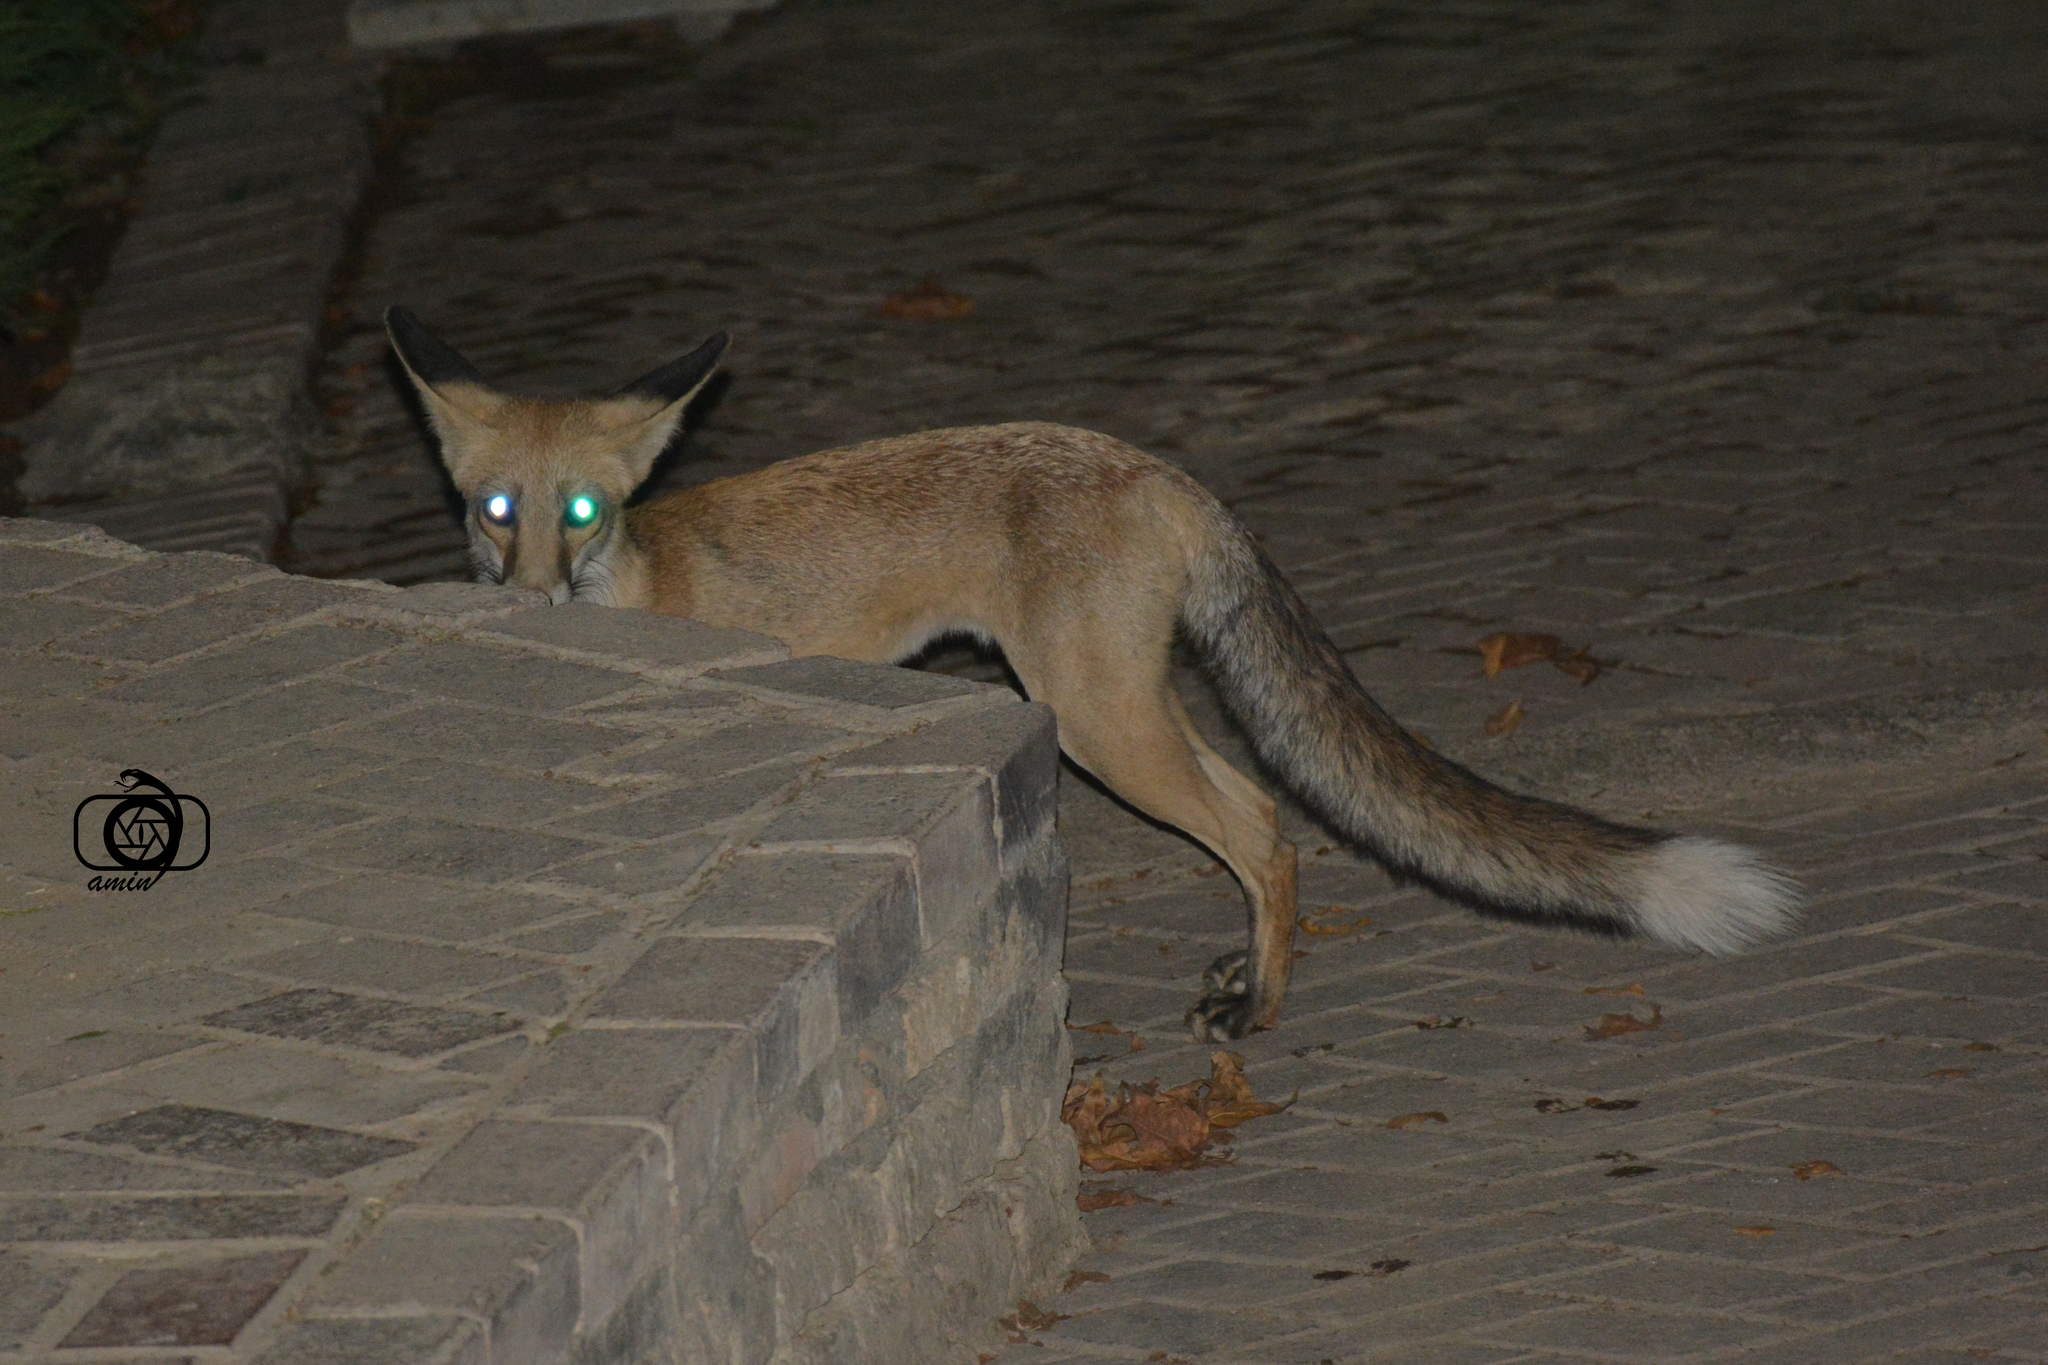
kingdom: Animalia
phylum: Chordata
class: Mammalia
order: Carnivora
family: Canidae
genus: Vulpes
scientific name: Vulpes vulpes
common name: Red fox
